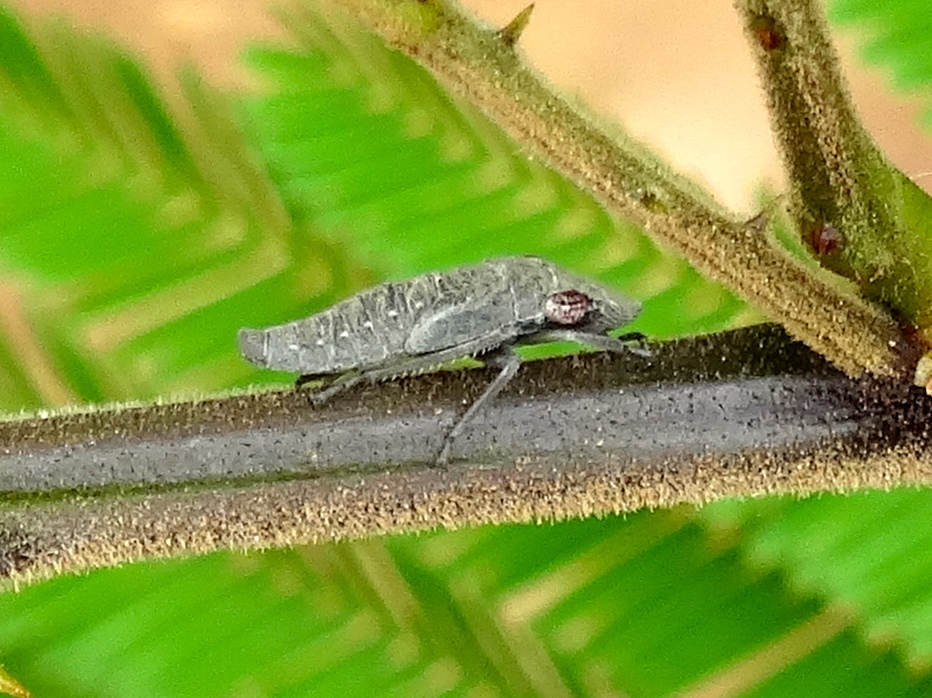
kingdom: Animalia
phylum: Arthropoda
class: Insecta
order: Hemiptera
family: Cicadellidae
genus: Homalodisca
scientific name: Homalodisca
